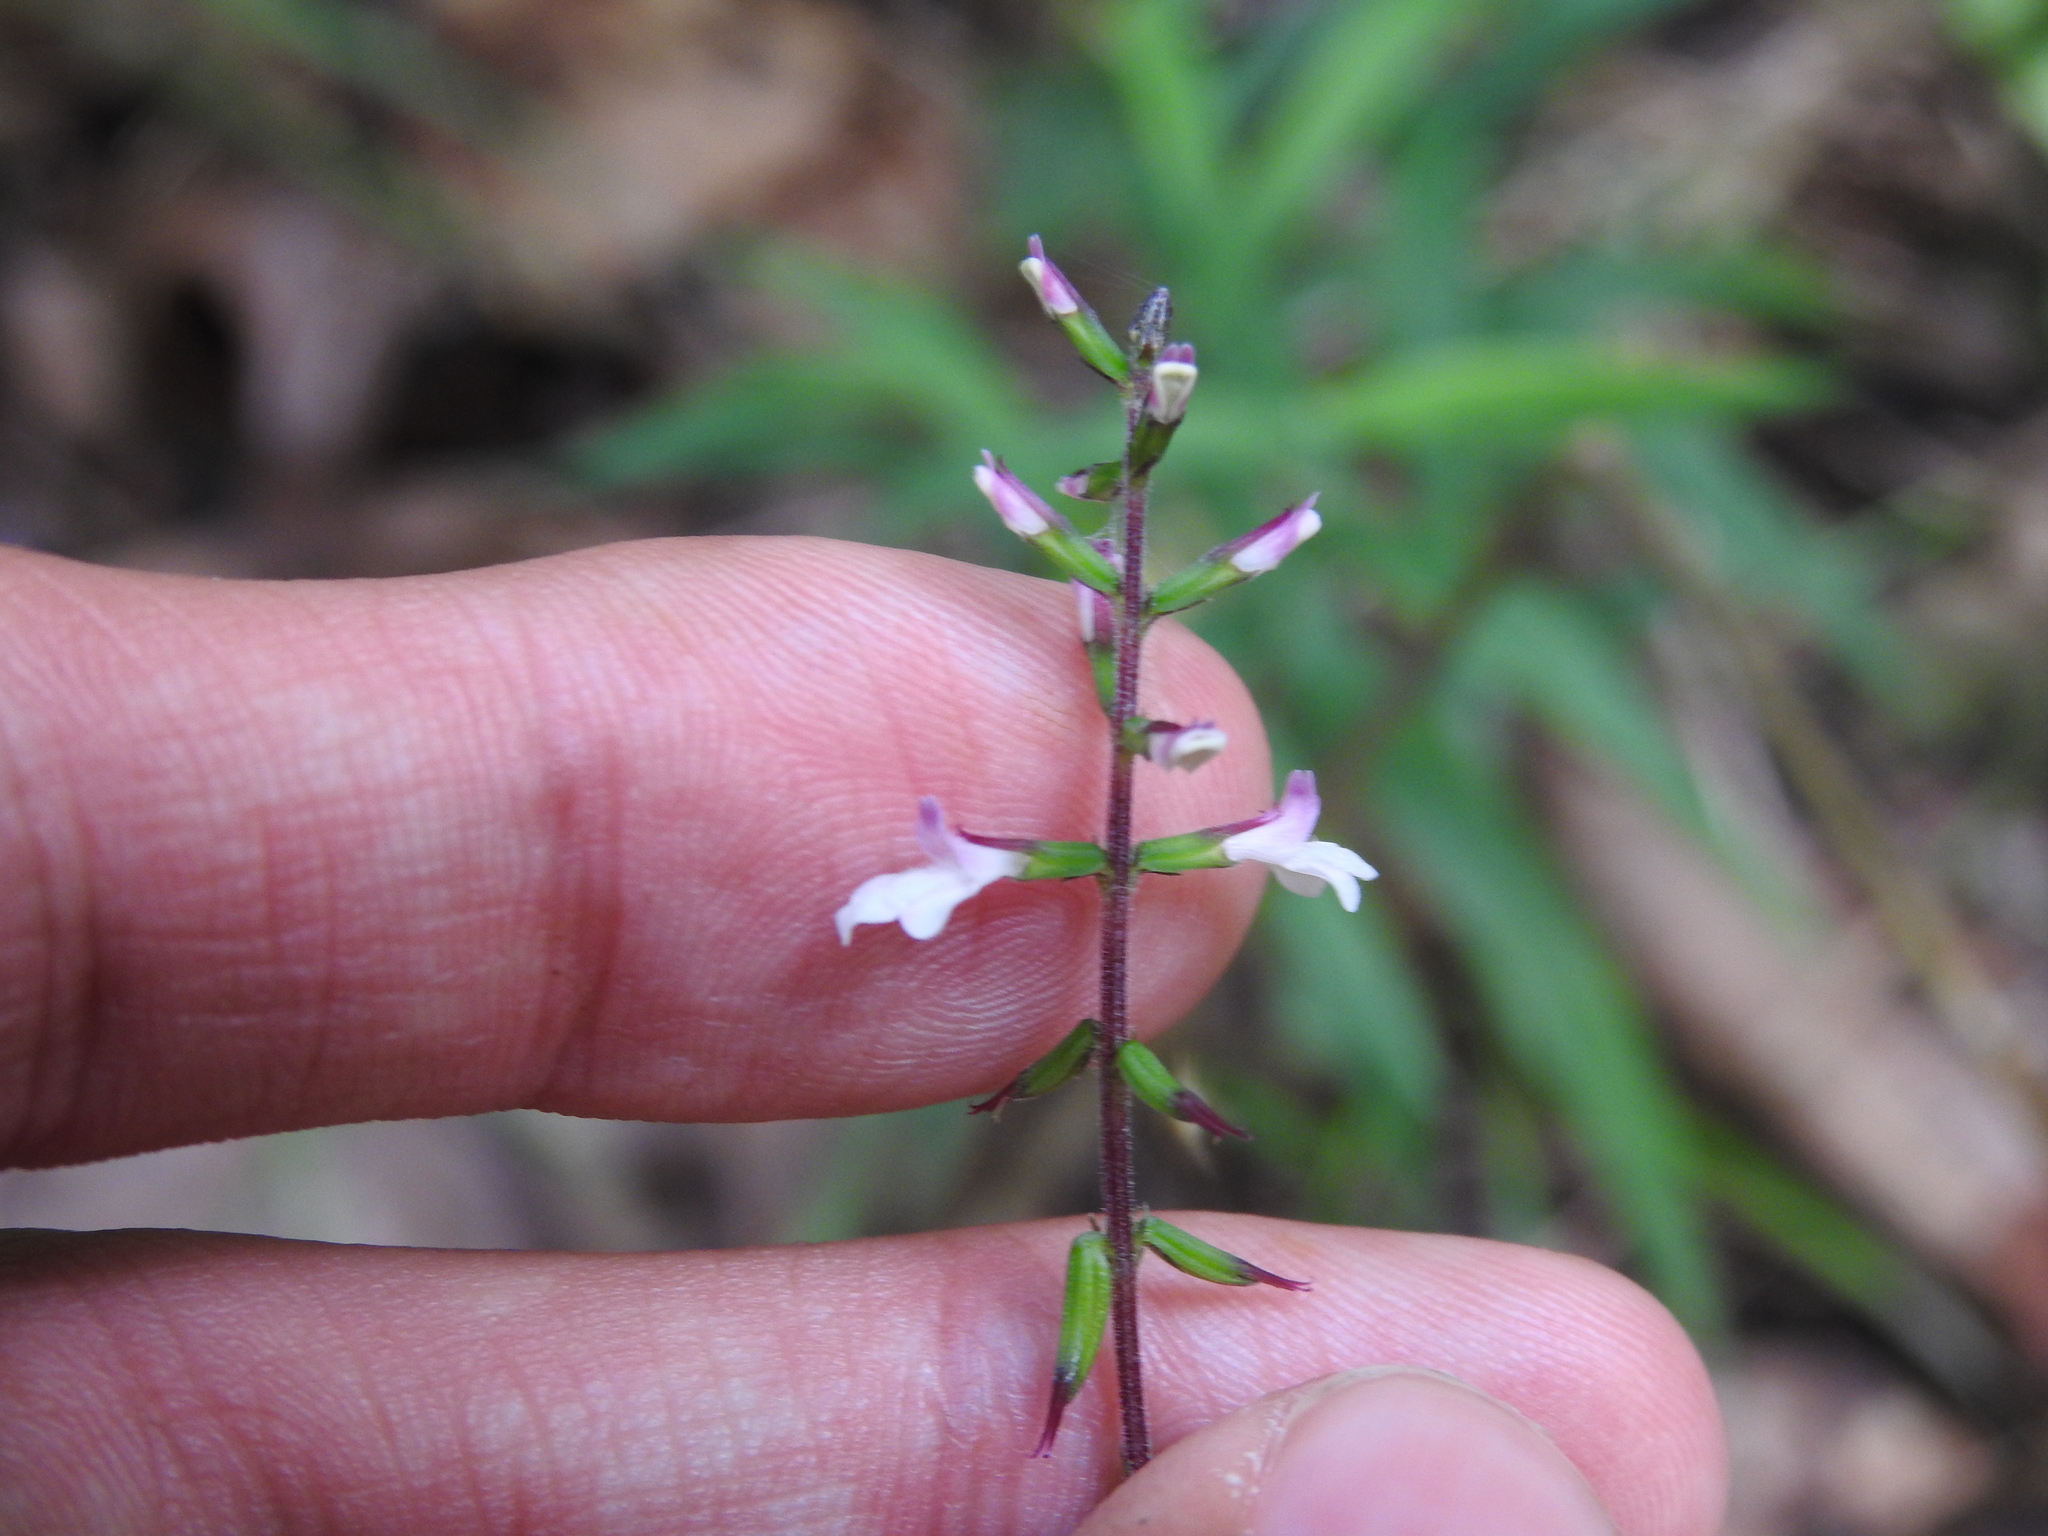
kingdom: Plantae
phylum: Tracheophyta
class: Magnoliopsida
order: Lamiales
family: Phrymaceae
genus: Phryma
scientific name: Phryma leptostachya
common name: American lopseed
